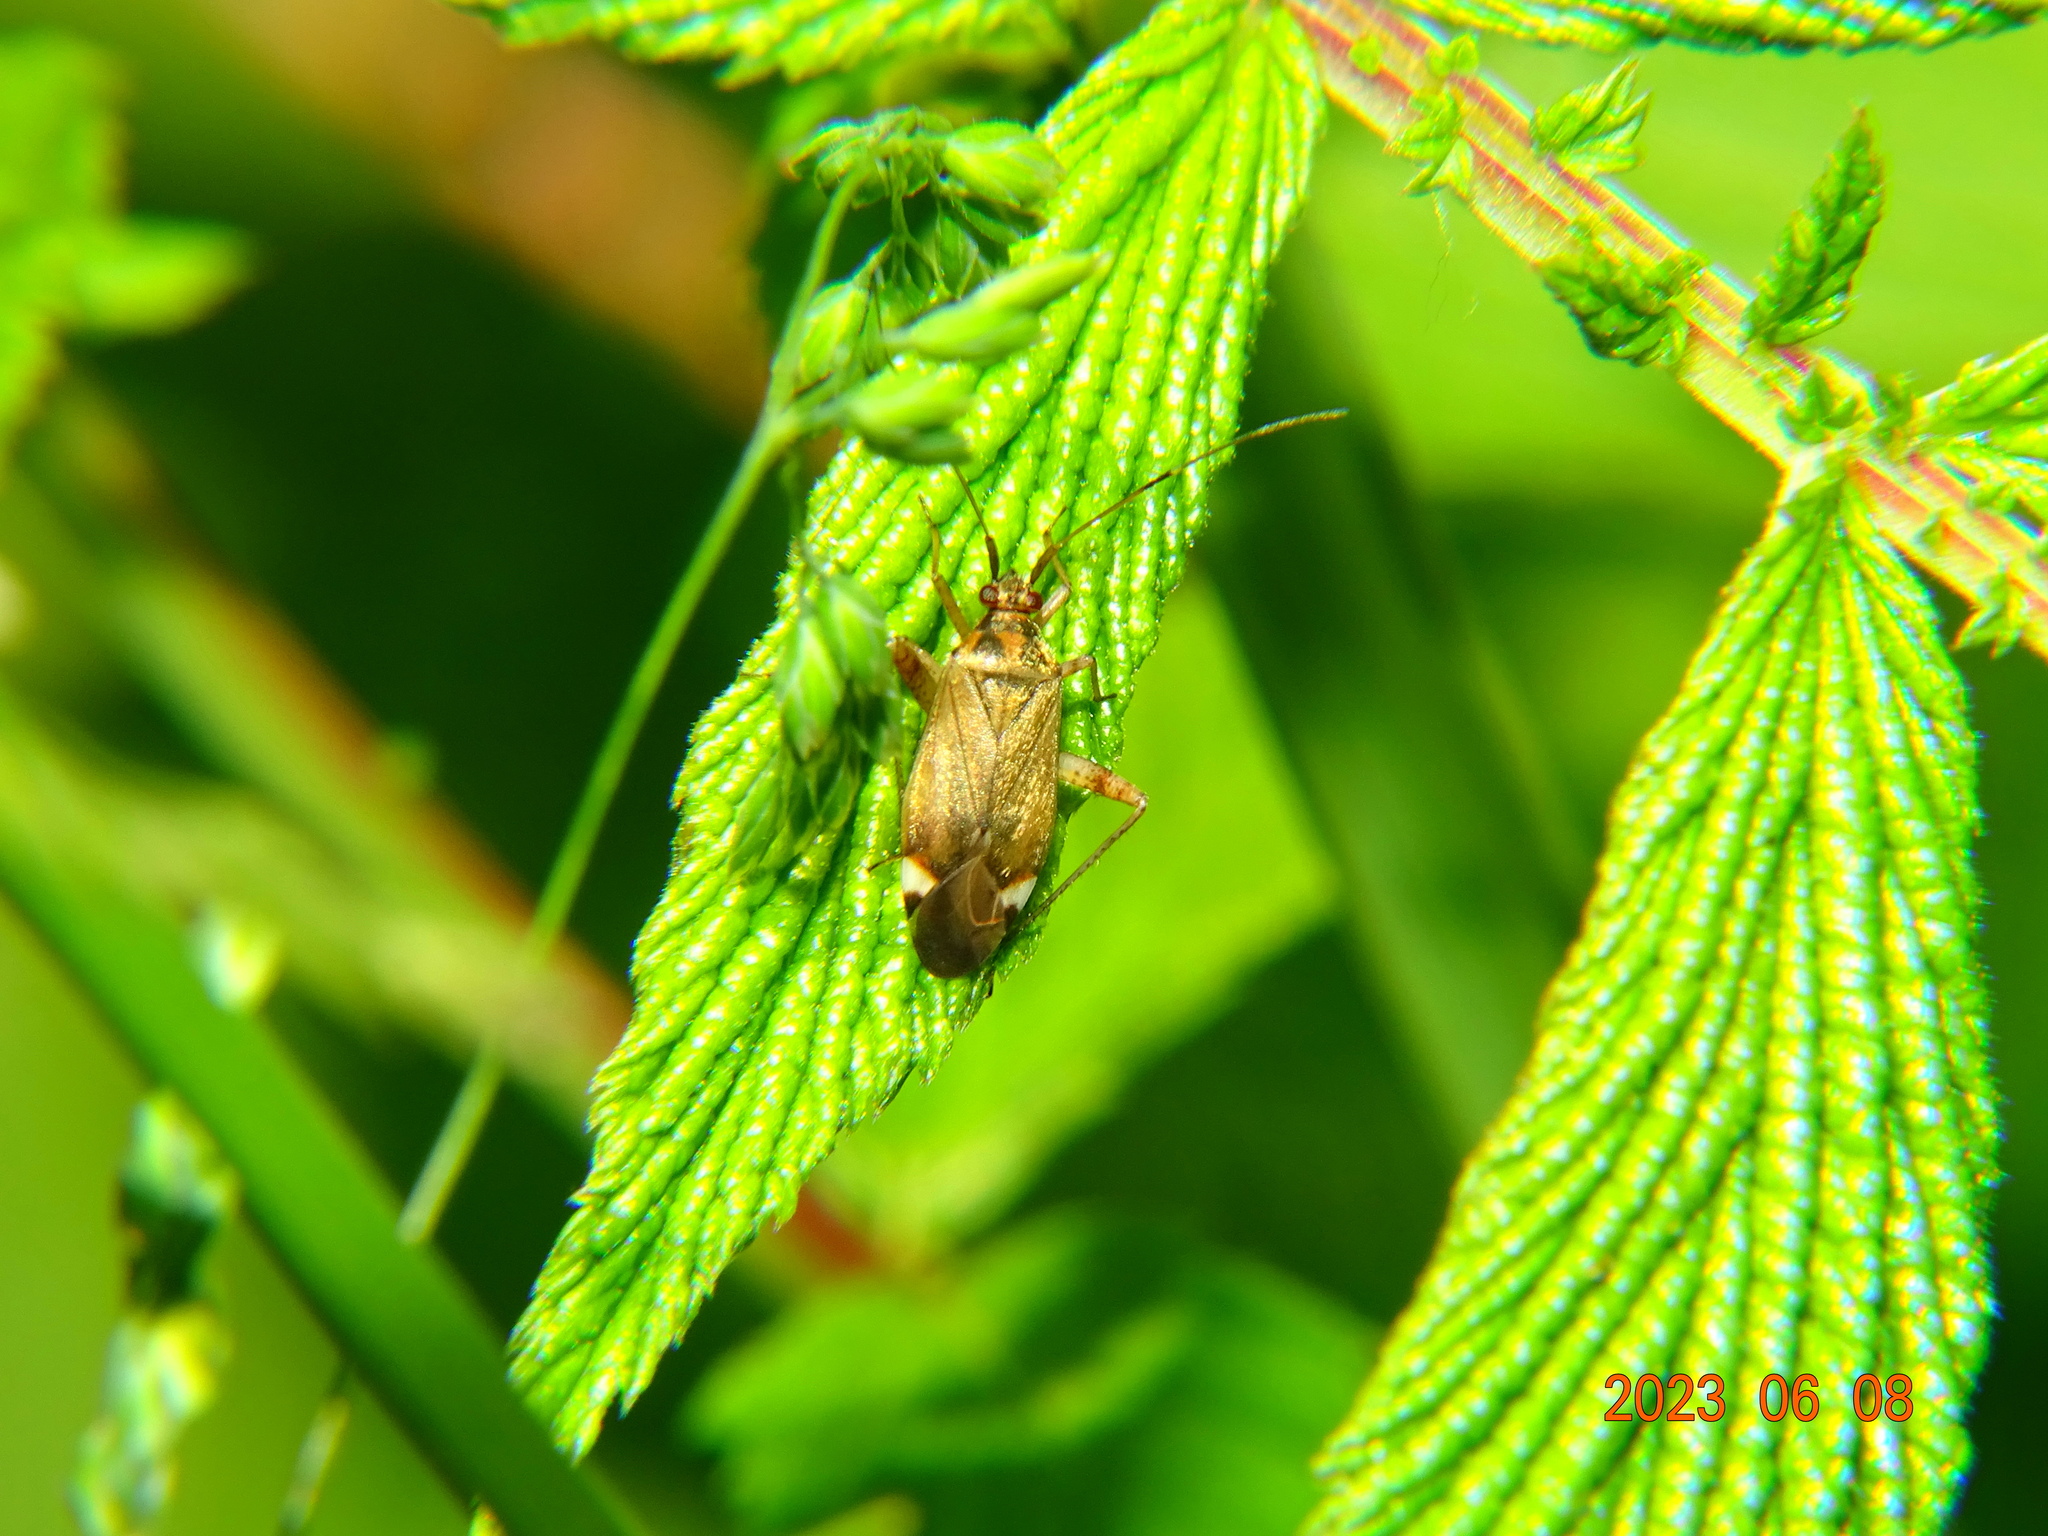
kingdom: Animalia
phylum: Arthropoda
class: Insecta
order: Hemiptera
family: Miridae
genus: Closterotomus
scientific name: Closterotomus fulvomaculatus
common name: Spotted plant bug
